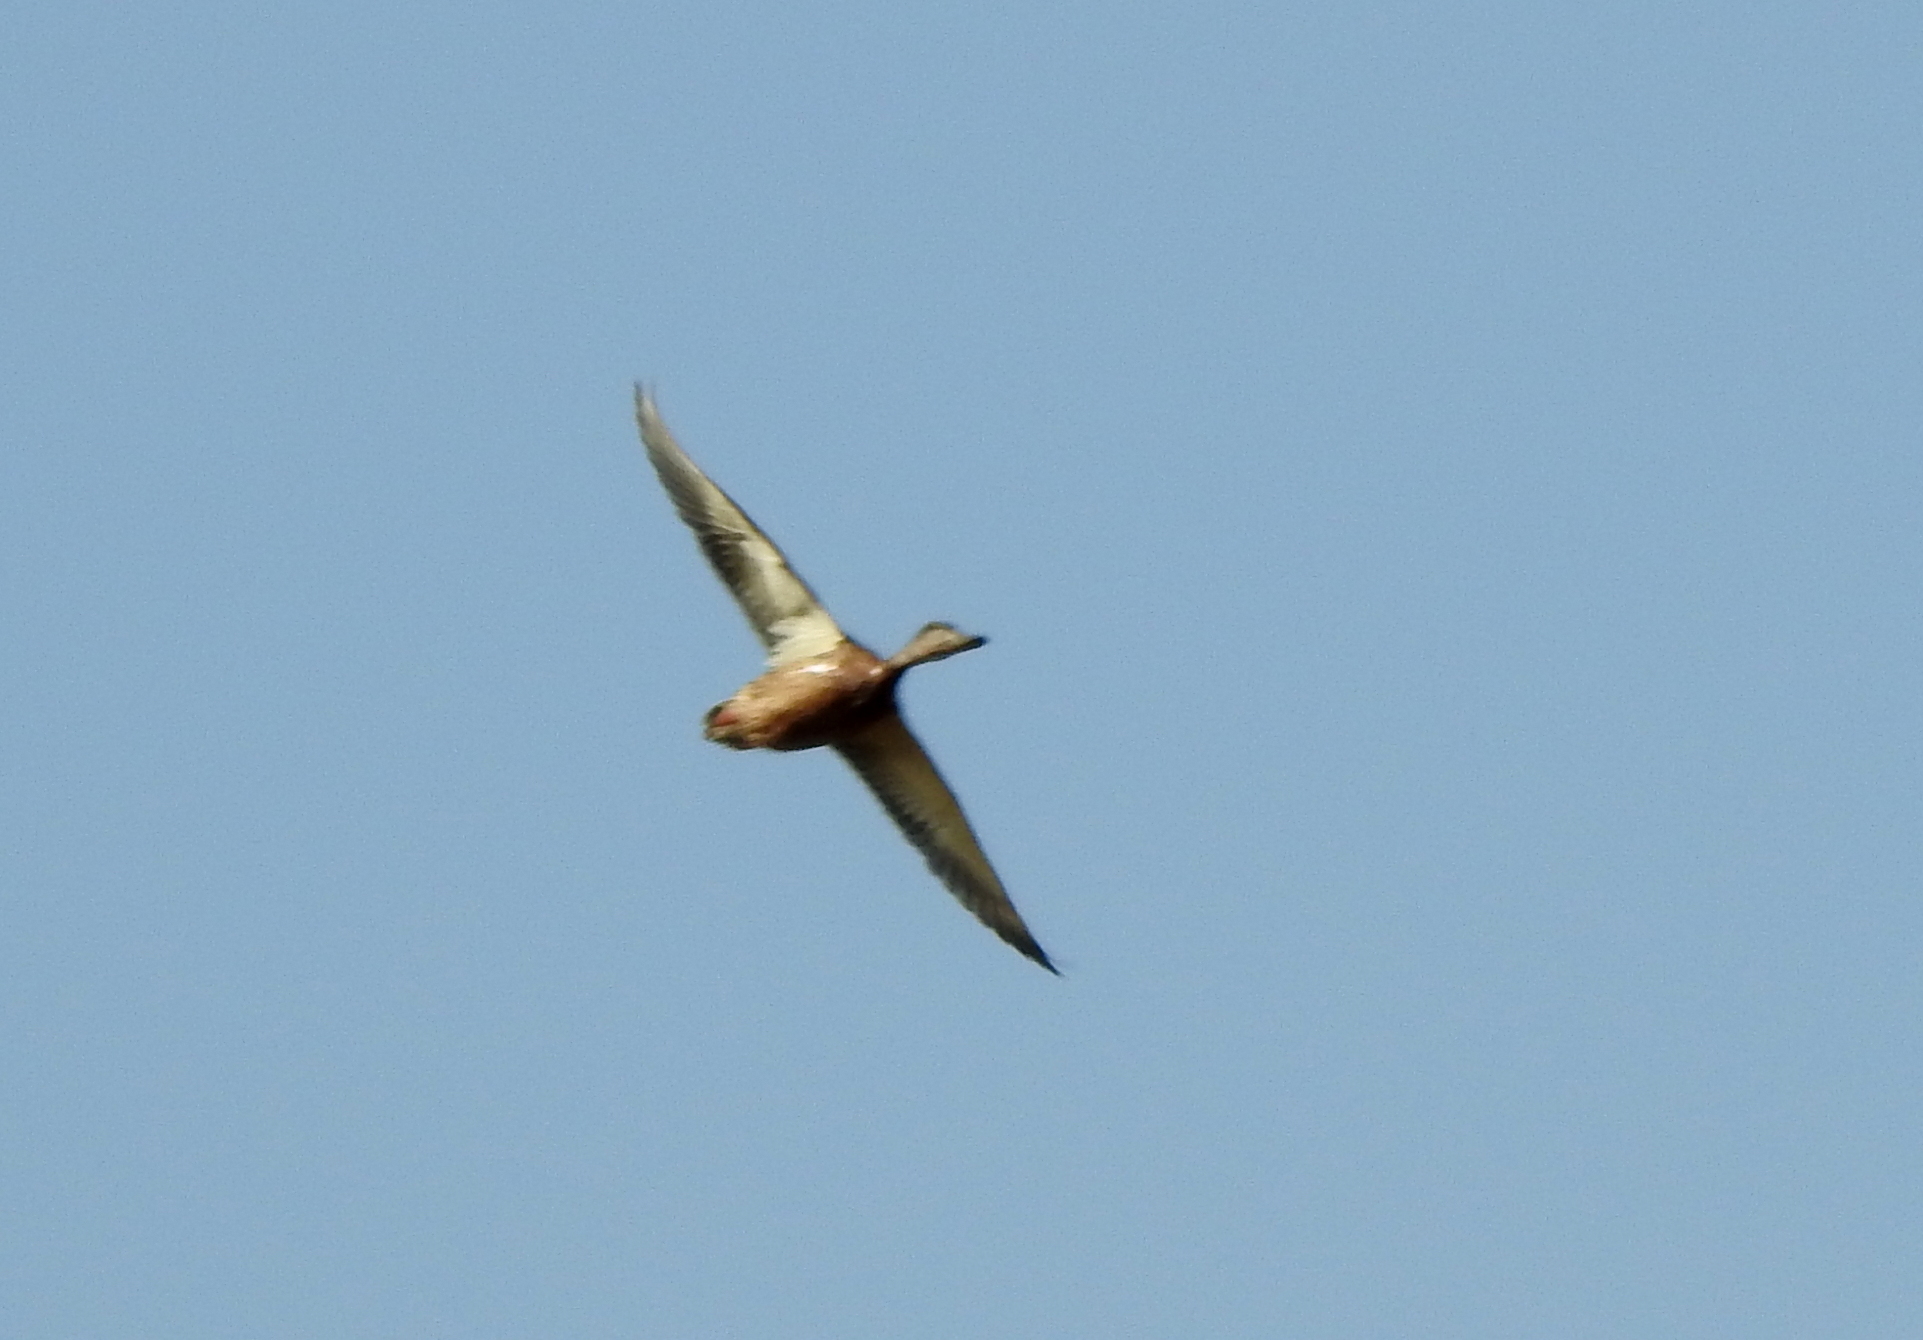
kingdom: Animalia
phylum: Chordata
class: Aves
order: Anseriformes
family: Anatidae
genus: Anas
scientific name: Anas platyrhynchos
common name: Mallard
